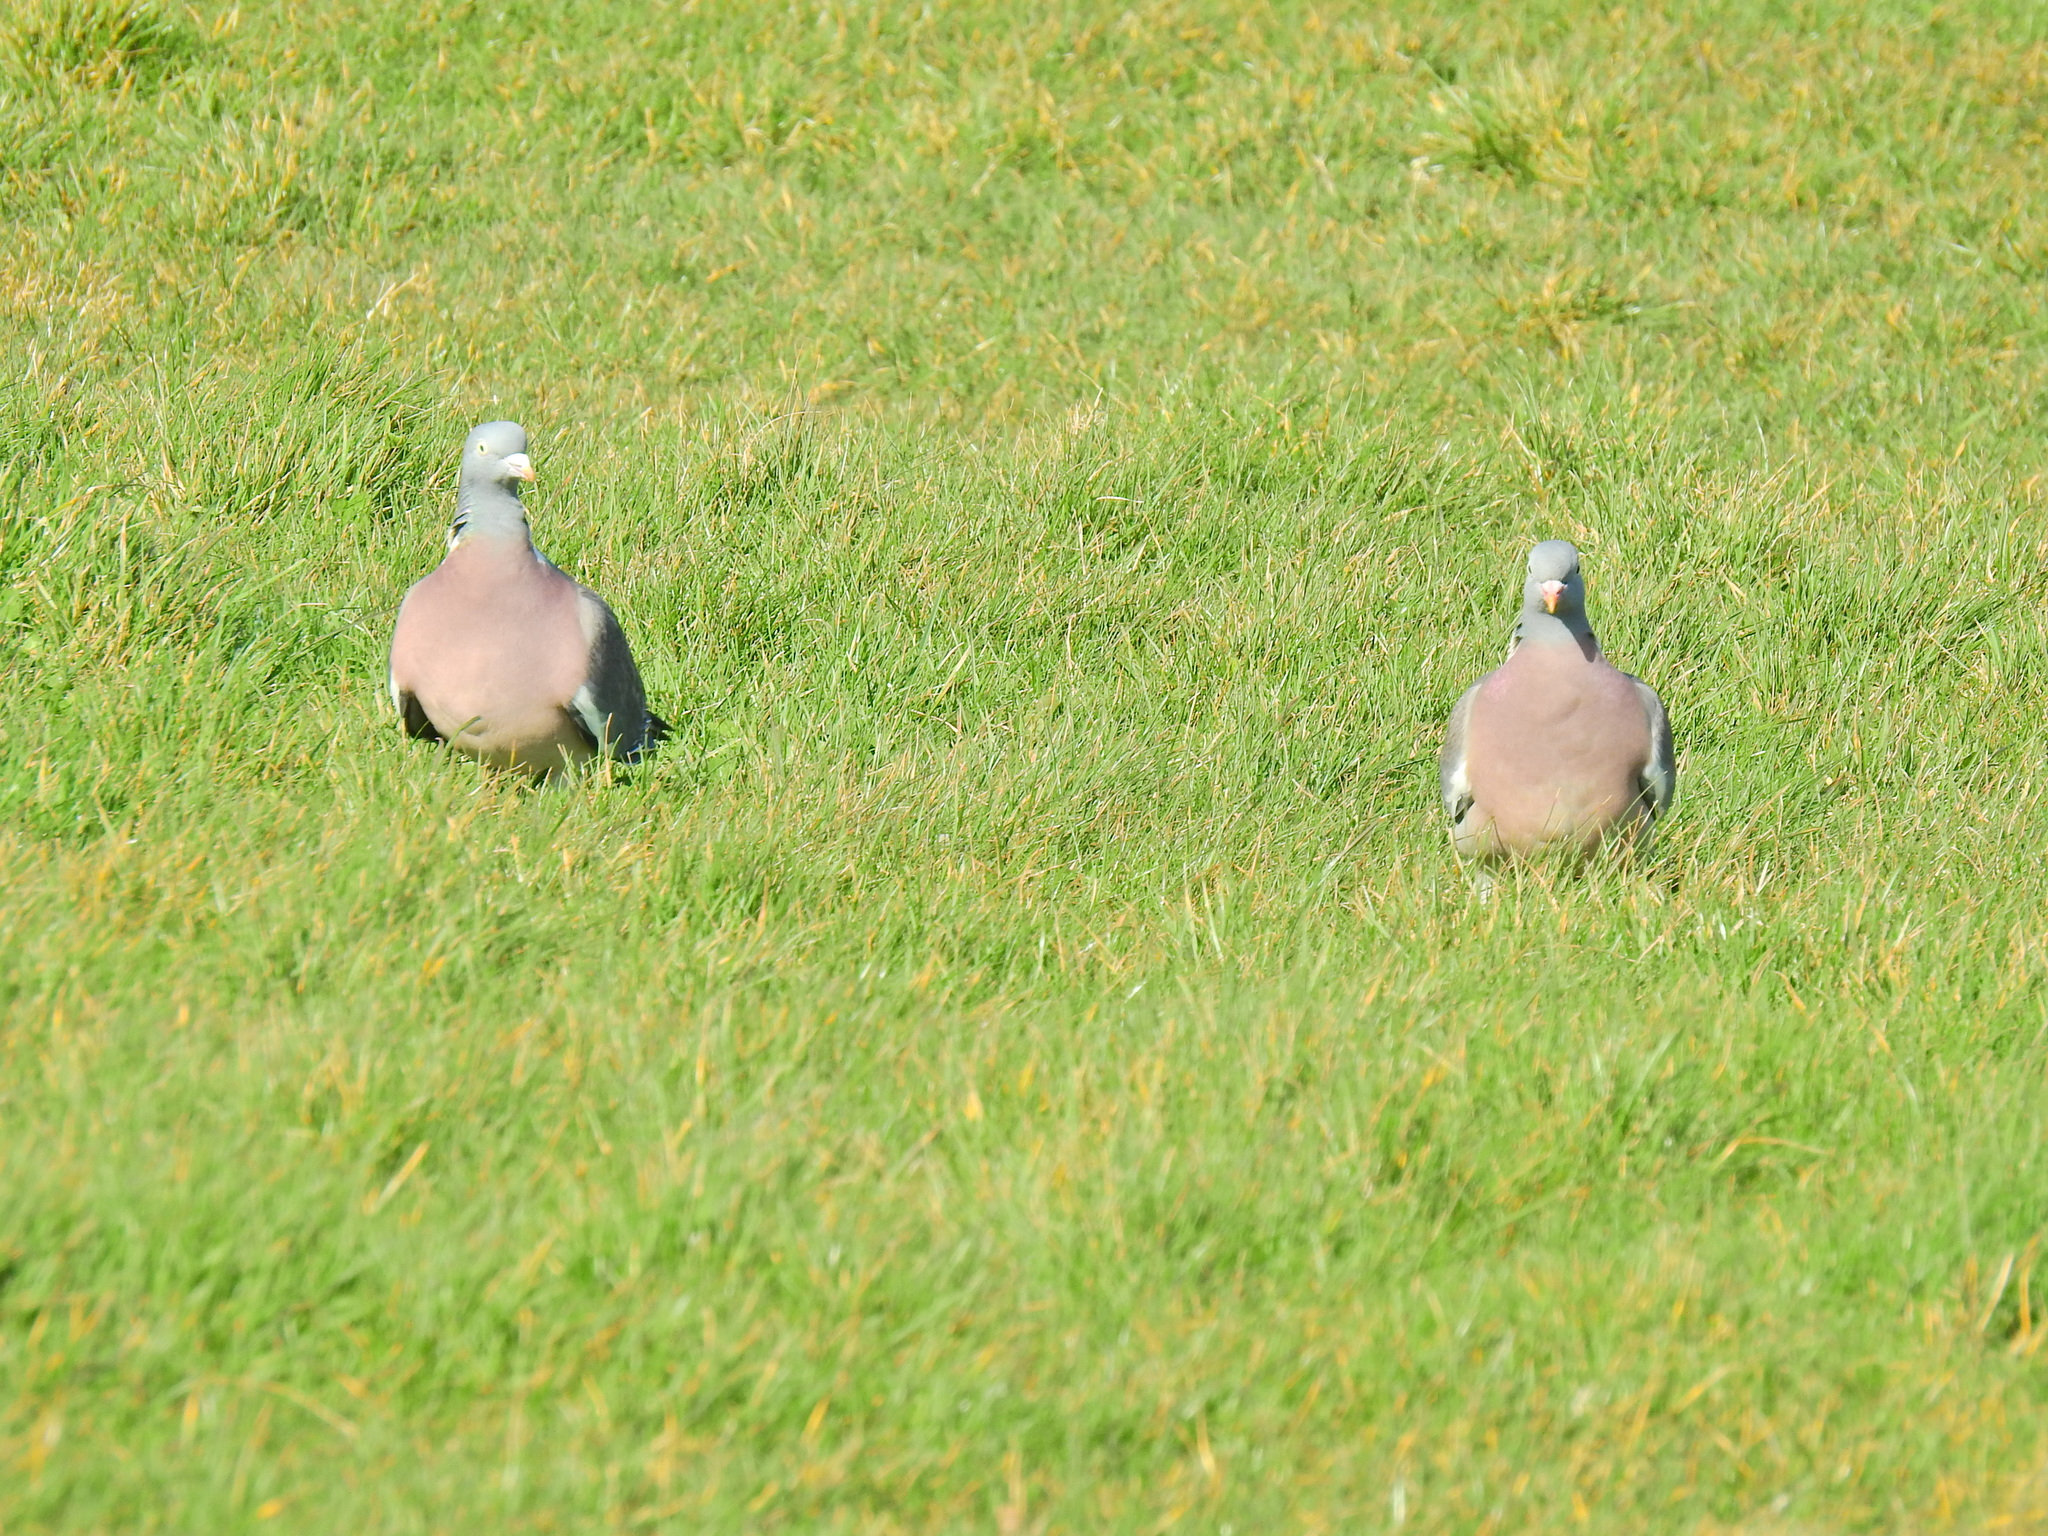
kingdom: Animalia
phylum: Chordata
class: Aves
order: Columbiformes
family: Columbidae
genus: Columba
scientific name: Columba palumbus
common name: Common wood pigeon
